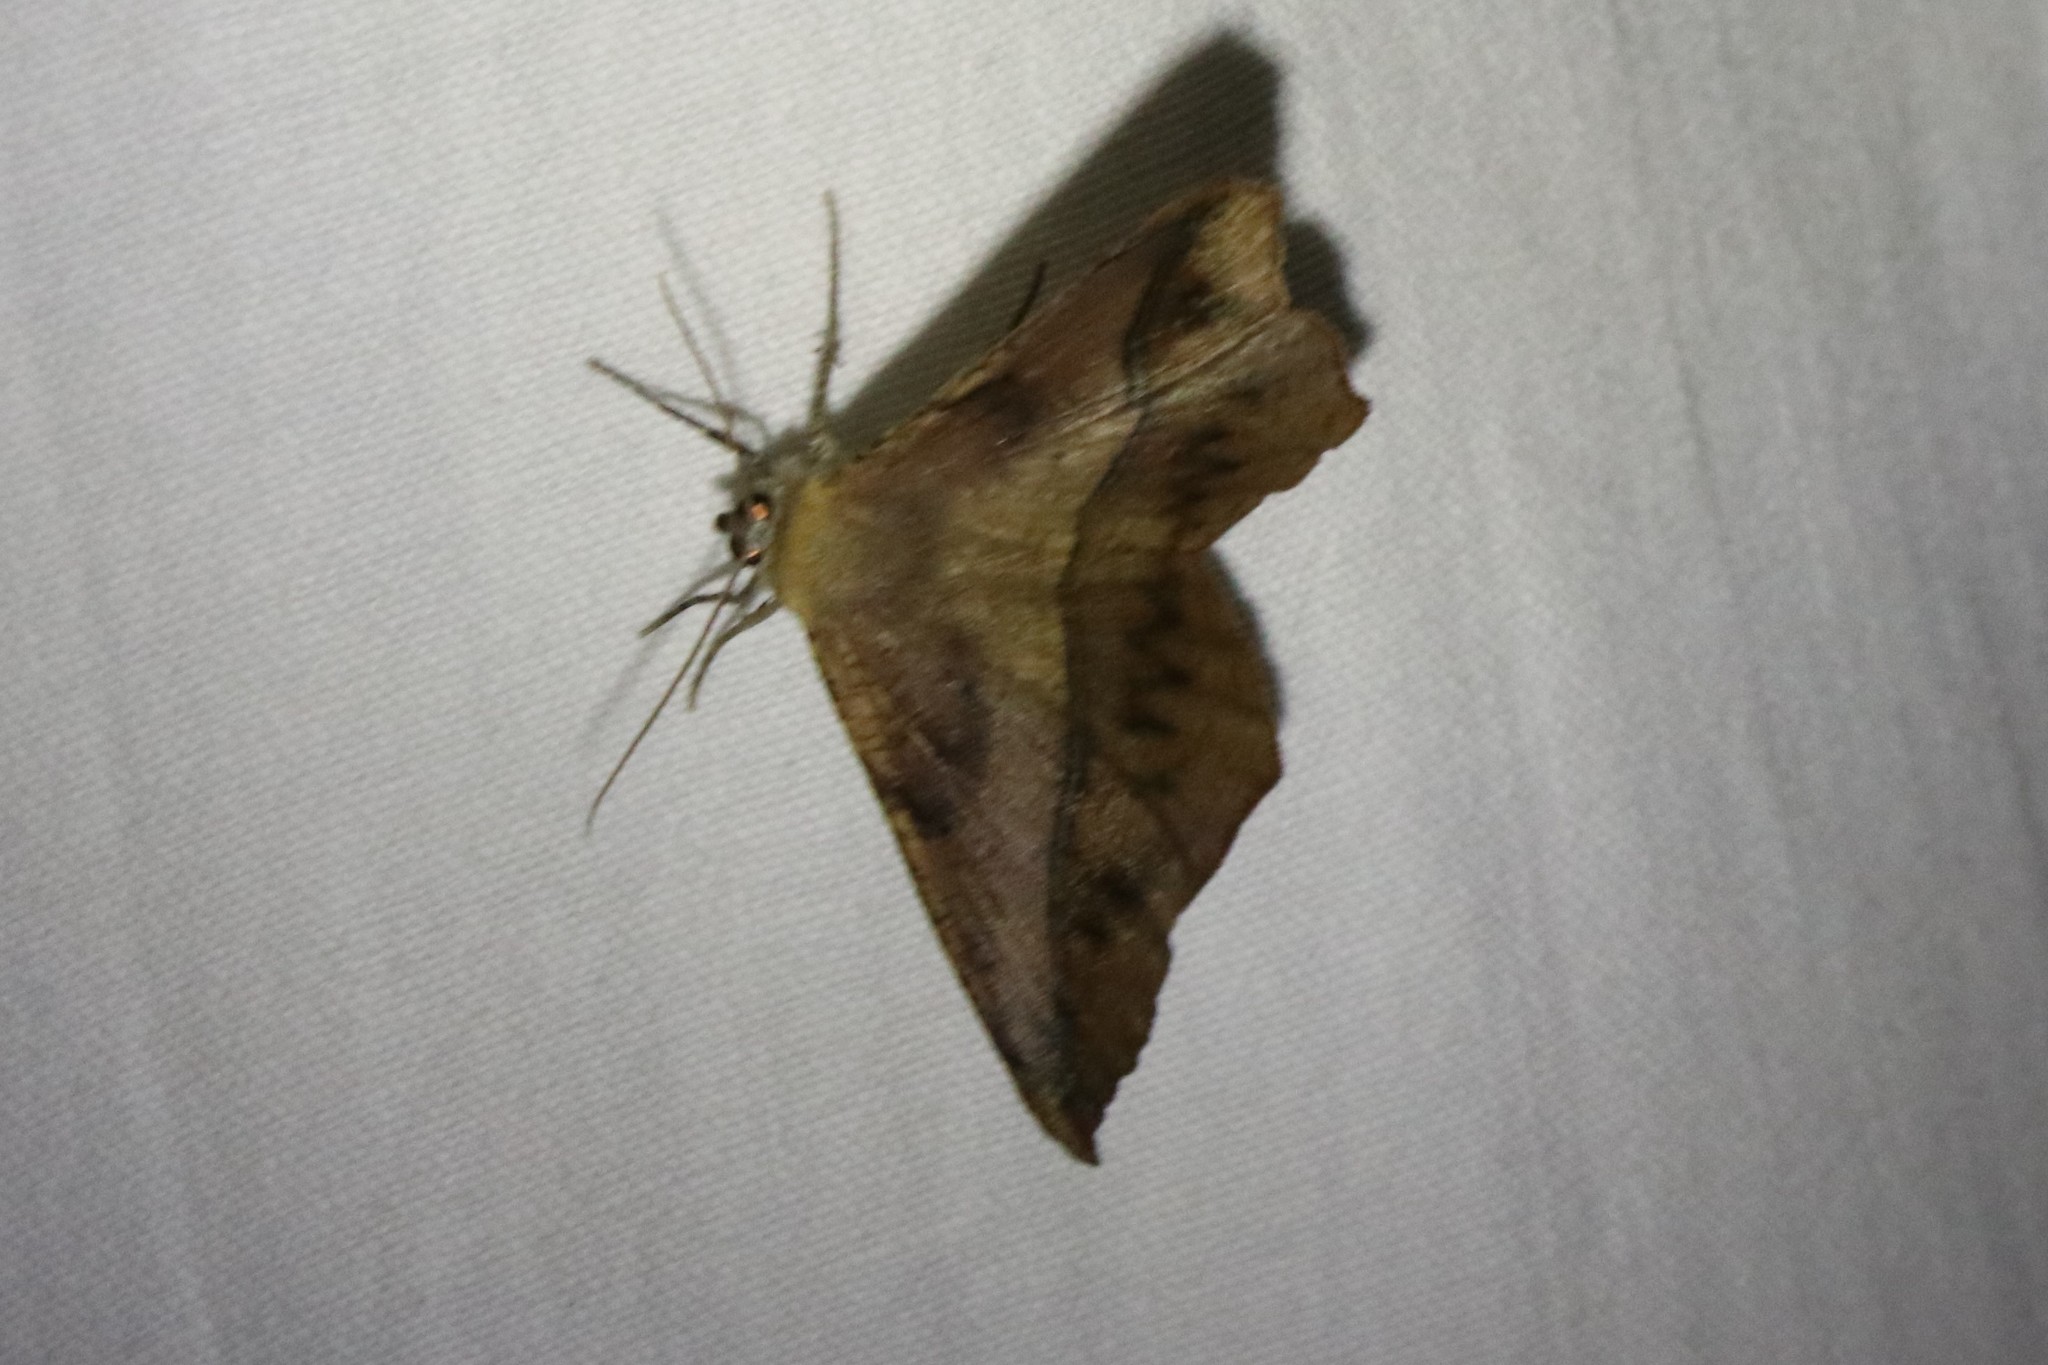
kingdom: Animalia
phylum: Arthropoda
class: Insecta
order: Lepidoptera
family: Geometridae
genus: Eutrapela
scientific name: Eutrapela clemataria
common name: Curved-toothed geometer
